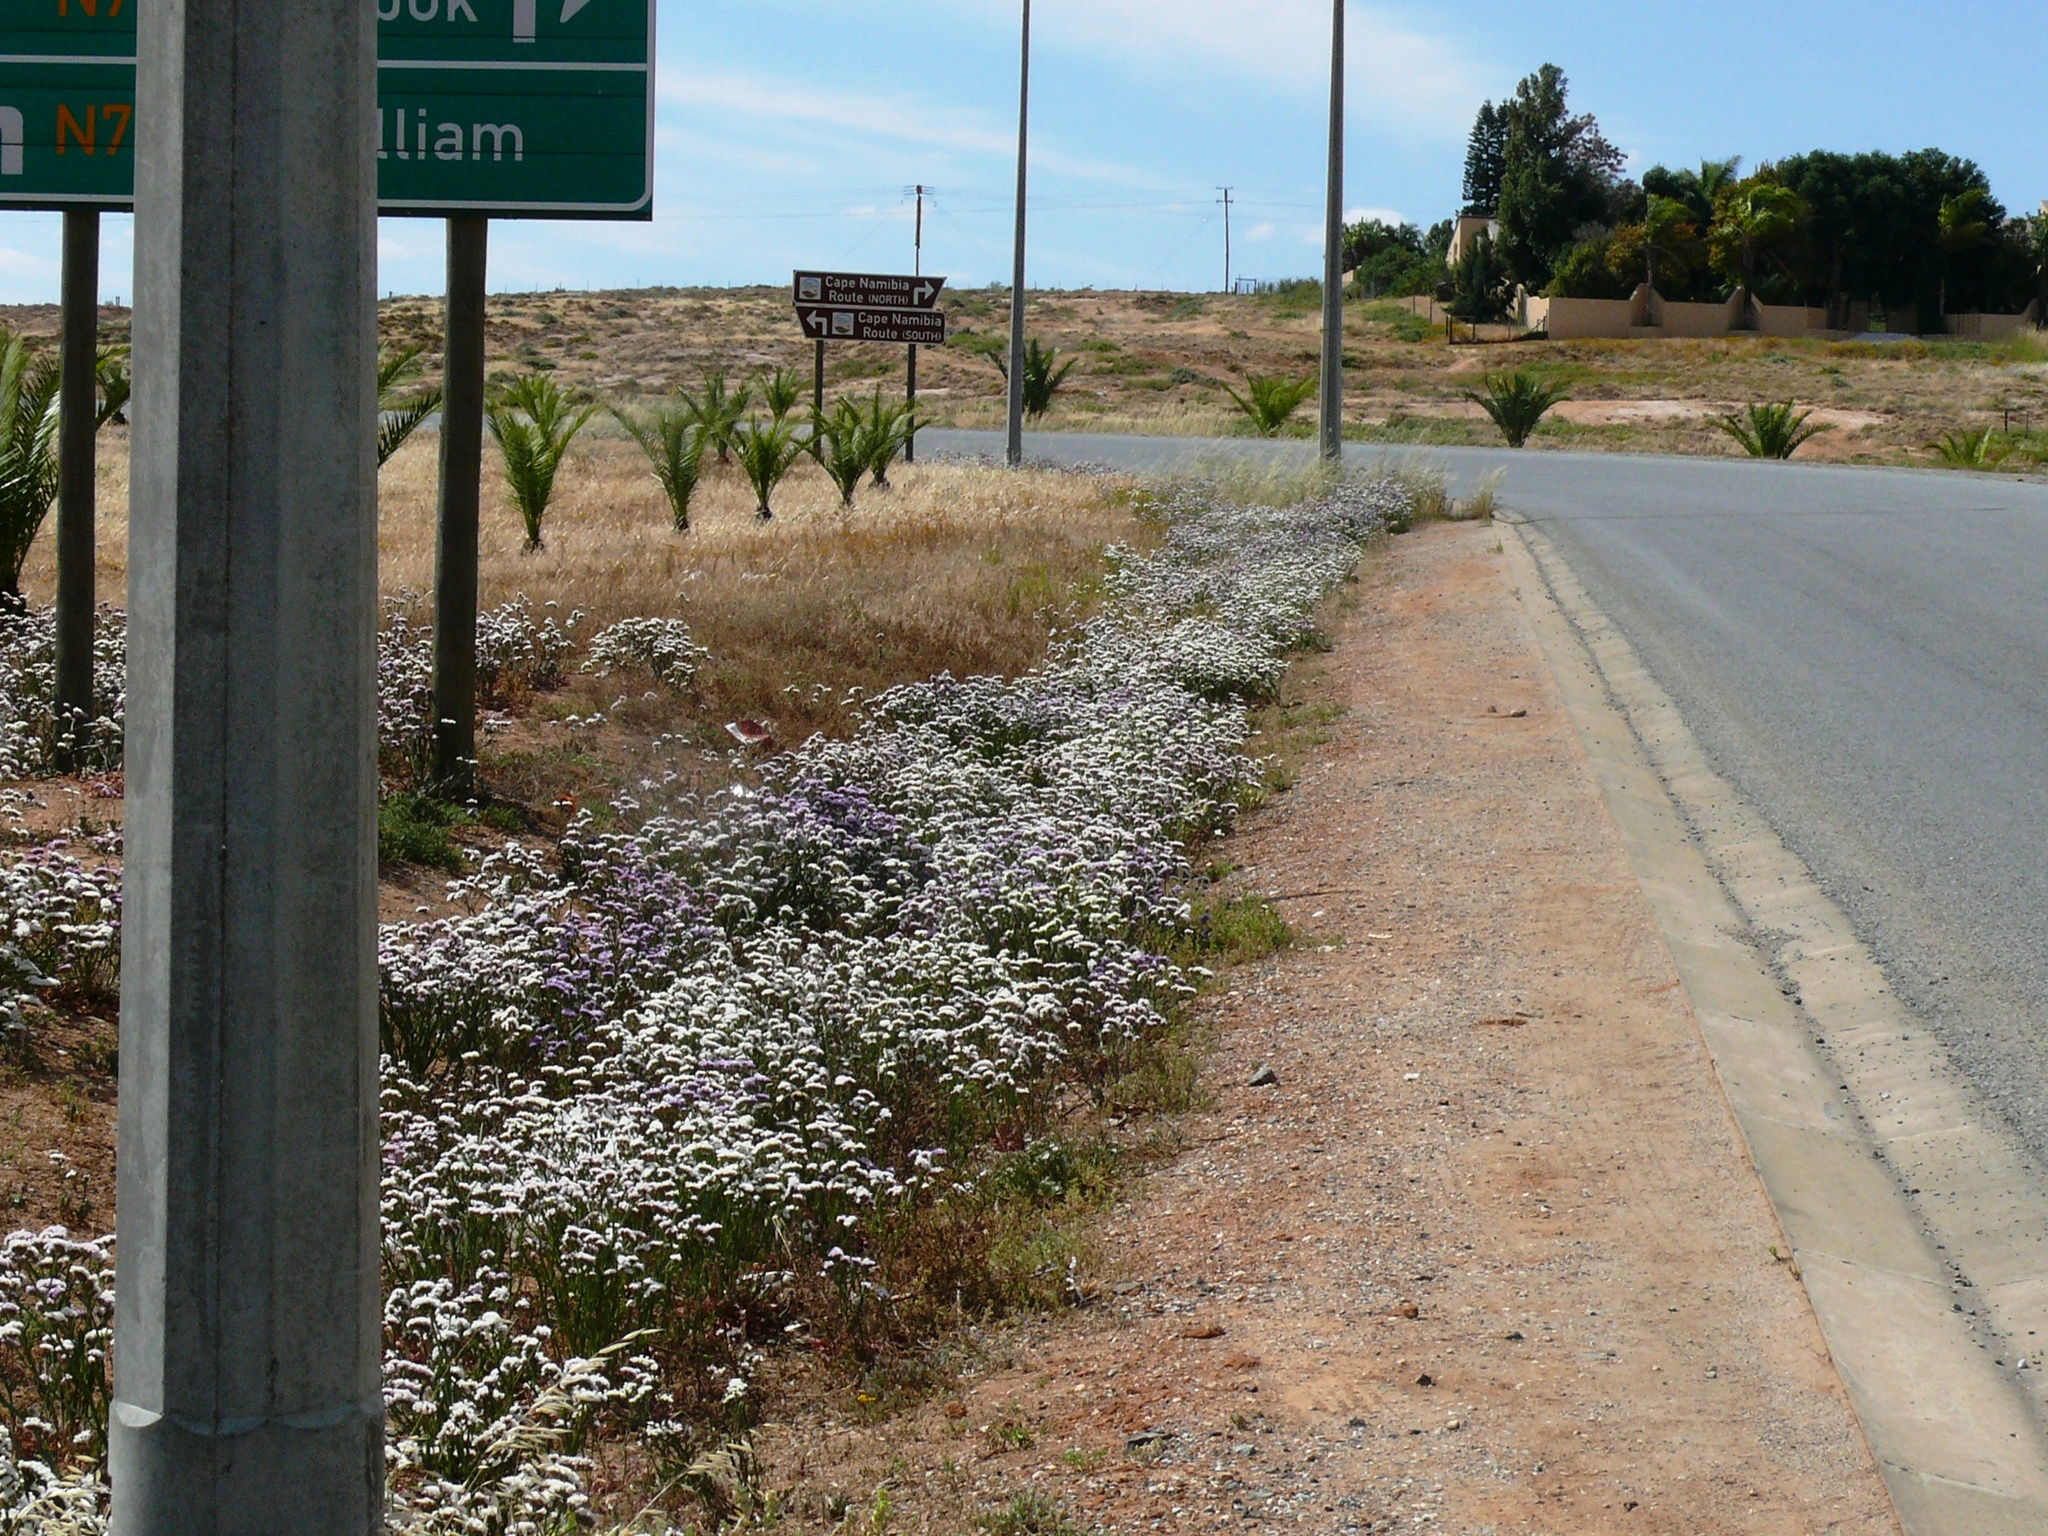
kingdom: Plantae
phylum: Tracheophyta
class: Magnoliopsida
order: Caryophyllales
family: Plumbaginaceae
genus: Limonium
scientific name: Limonium sinuatum
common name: Statice
